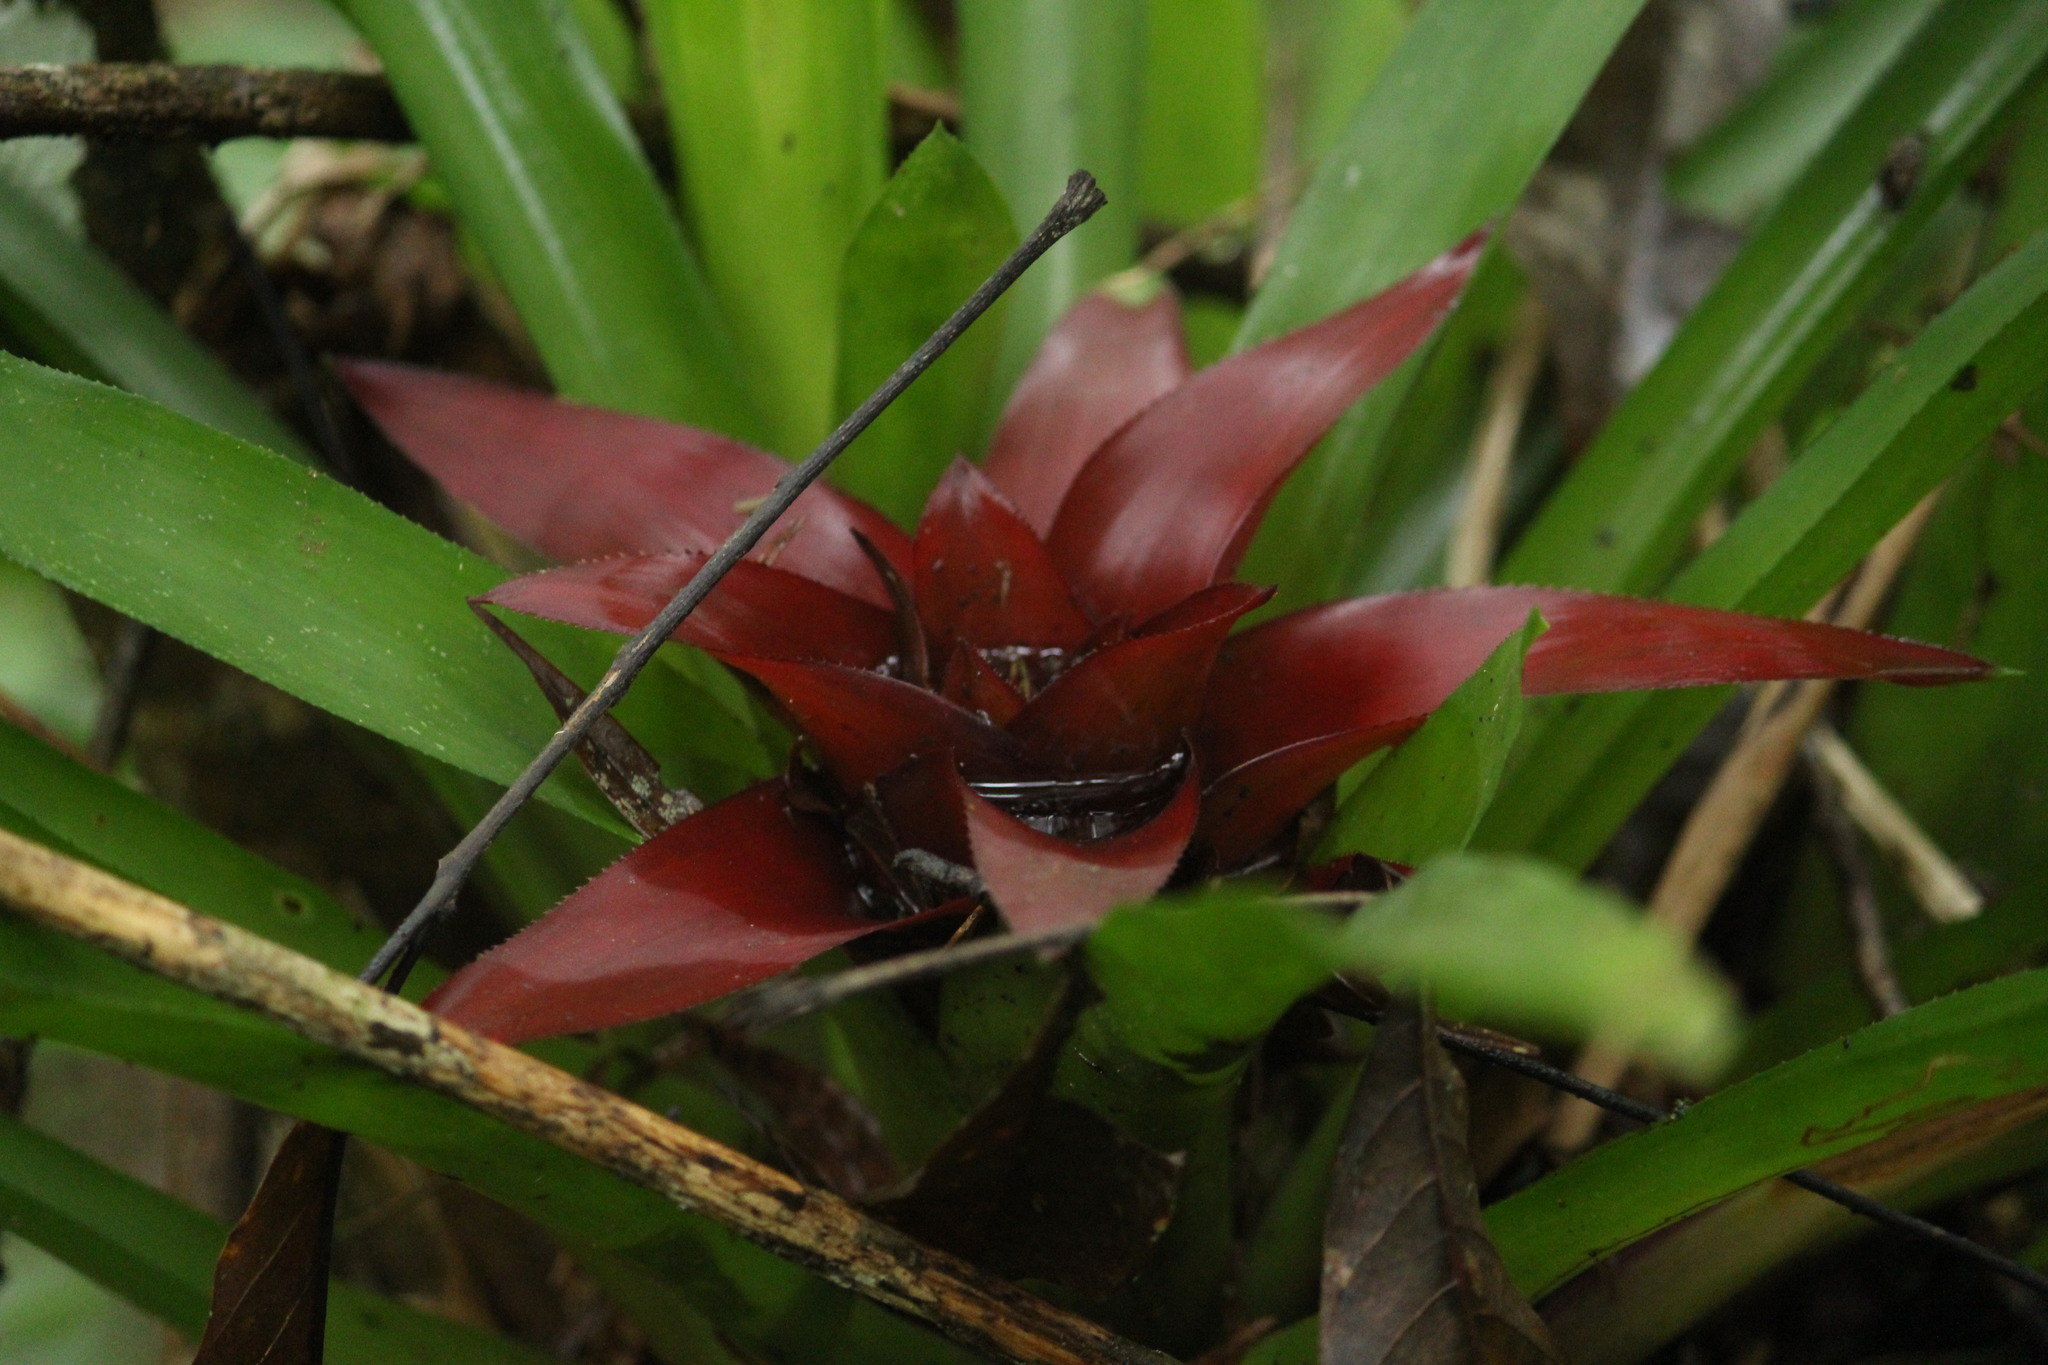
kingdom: Plantae
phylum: Tracheophyta
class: Liliopsida
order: Poales
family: Bromeliaceae
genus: Nidularium
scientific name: Nidularium procerum
